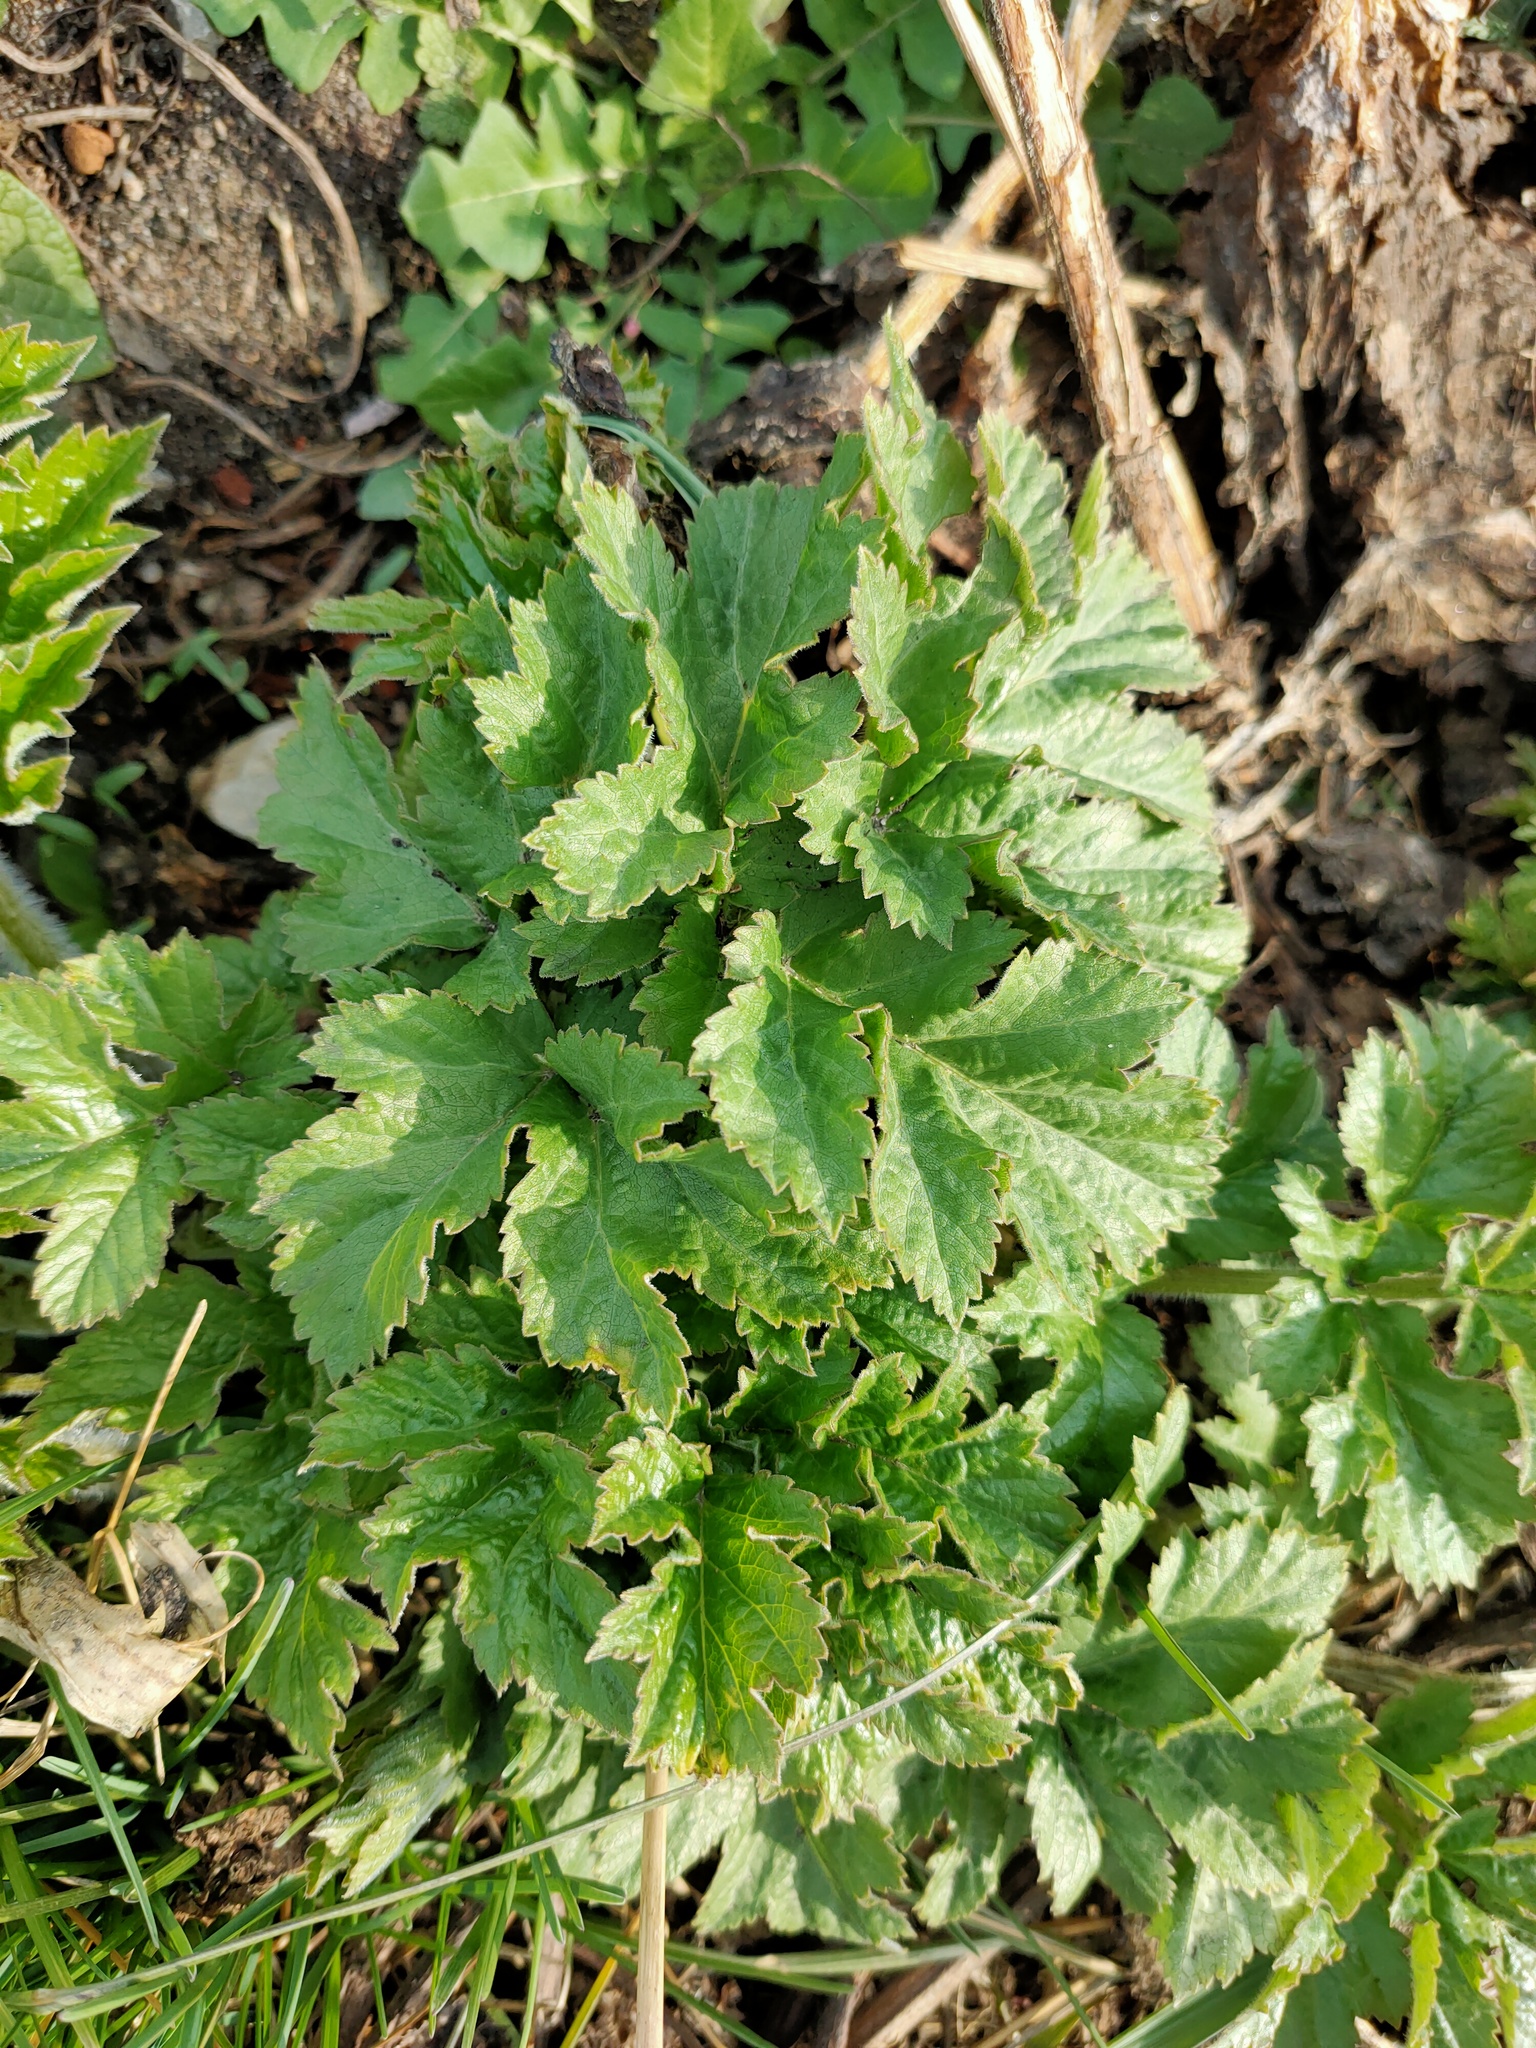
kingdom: Plantae
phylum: Tracheophyta
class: Magnoliopsida
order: Apiales
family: Apiaceae
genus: Heracleum
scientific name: Heracleum sphondylium
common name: Hogweed
